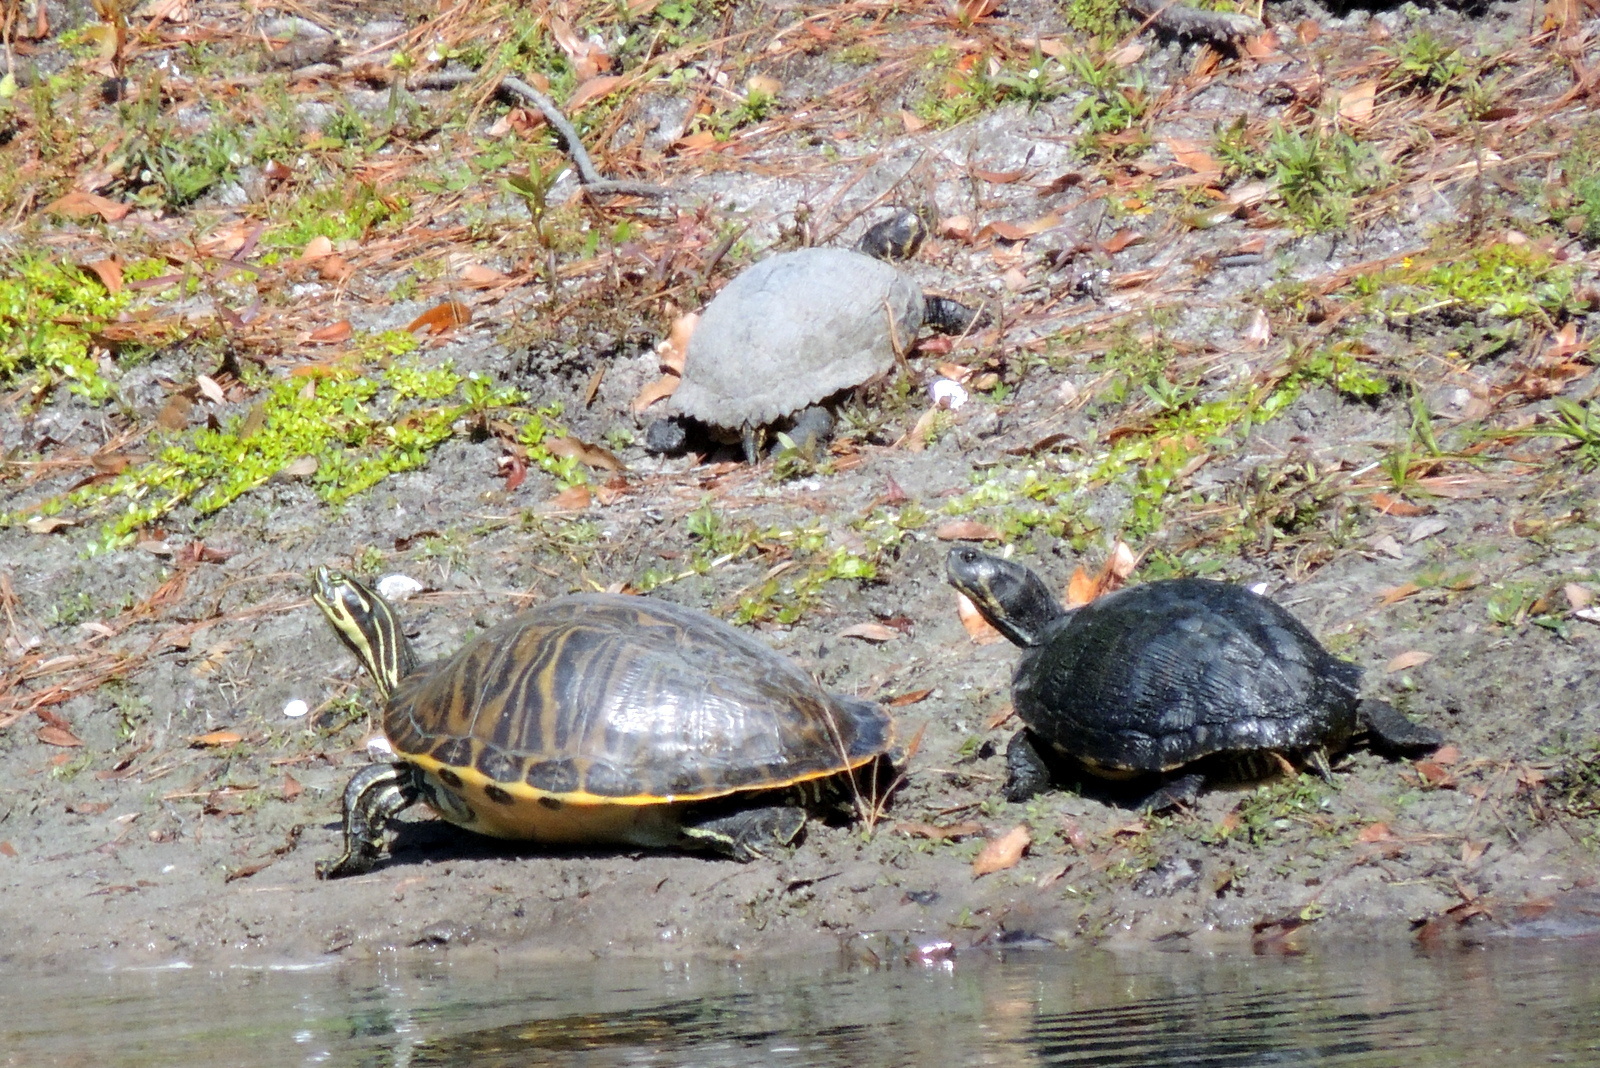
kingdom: Animalia
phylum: Chordata
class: Testudines
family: Emydidae
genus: Trachemys
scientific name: Trachemys scripta
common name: Slider
